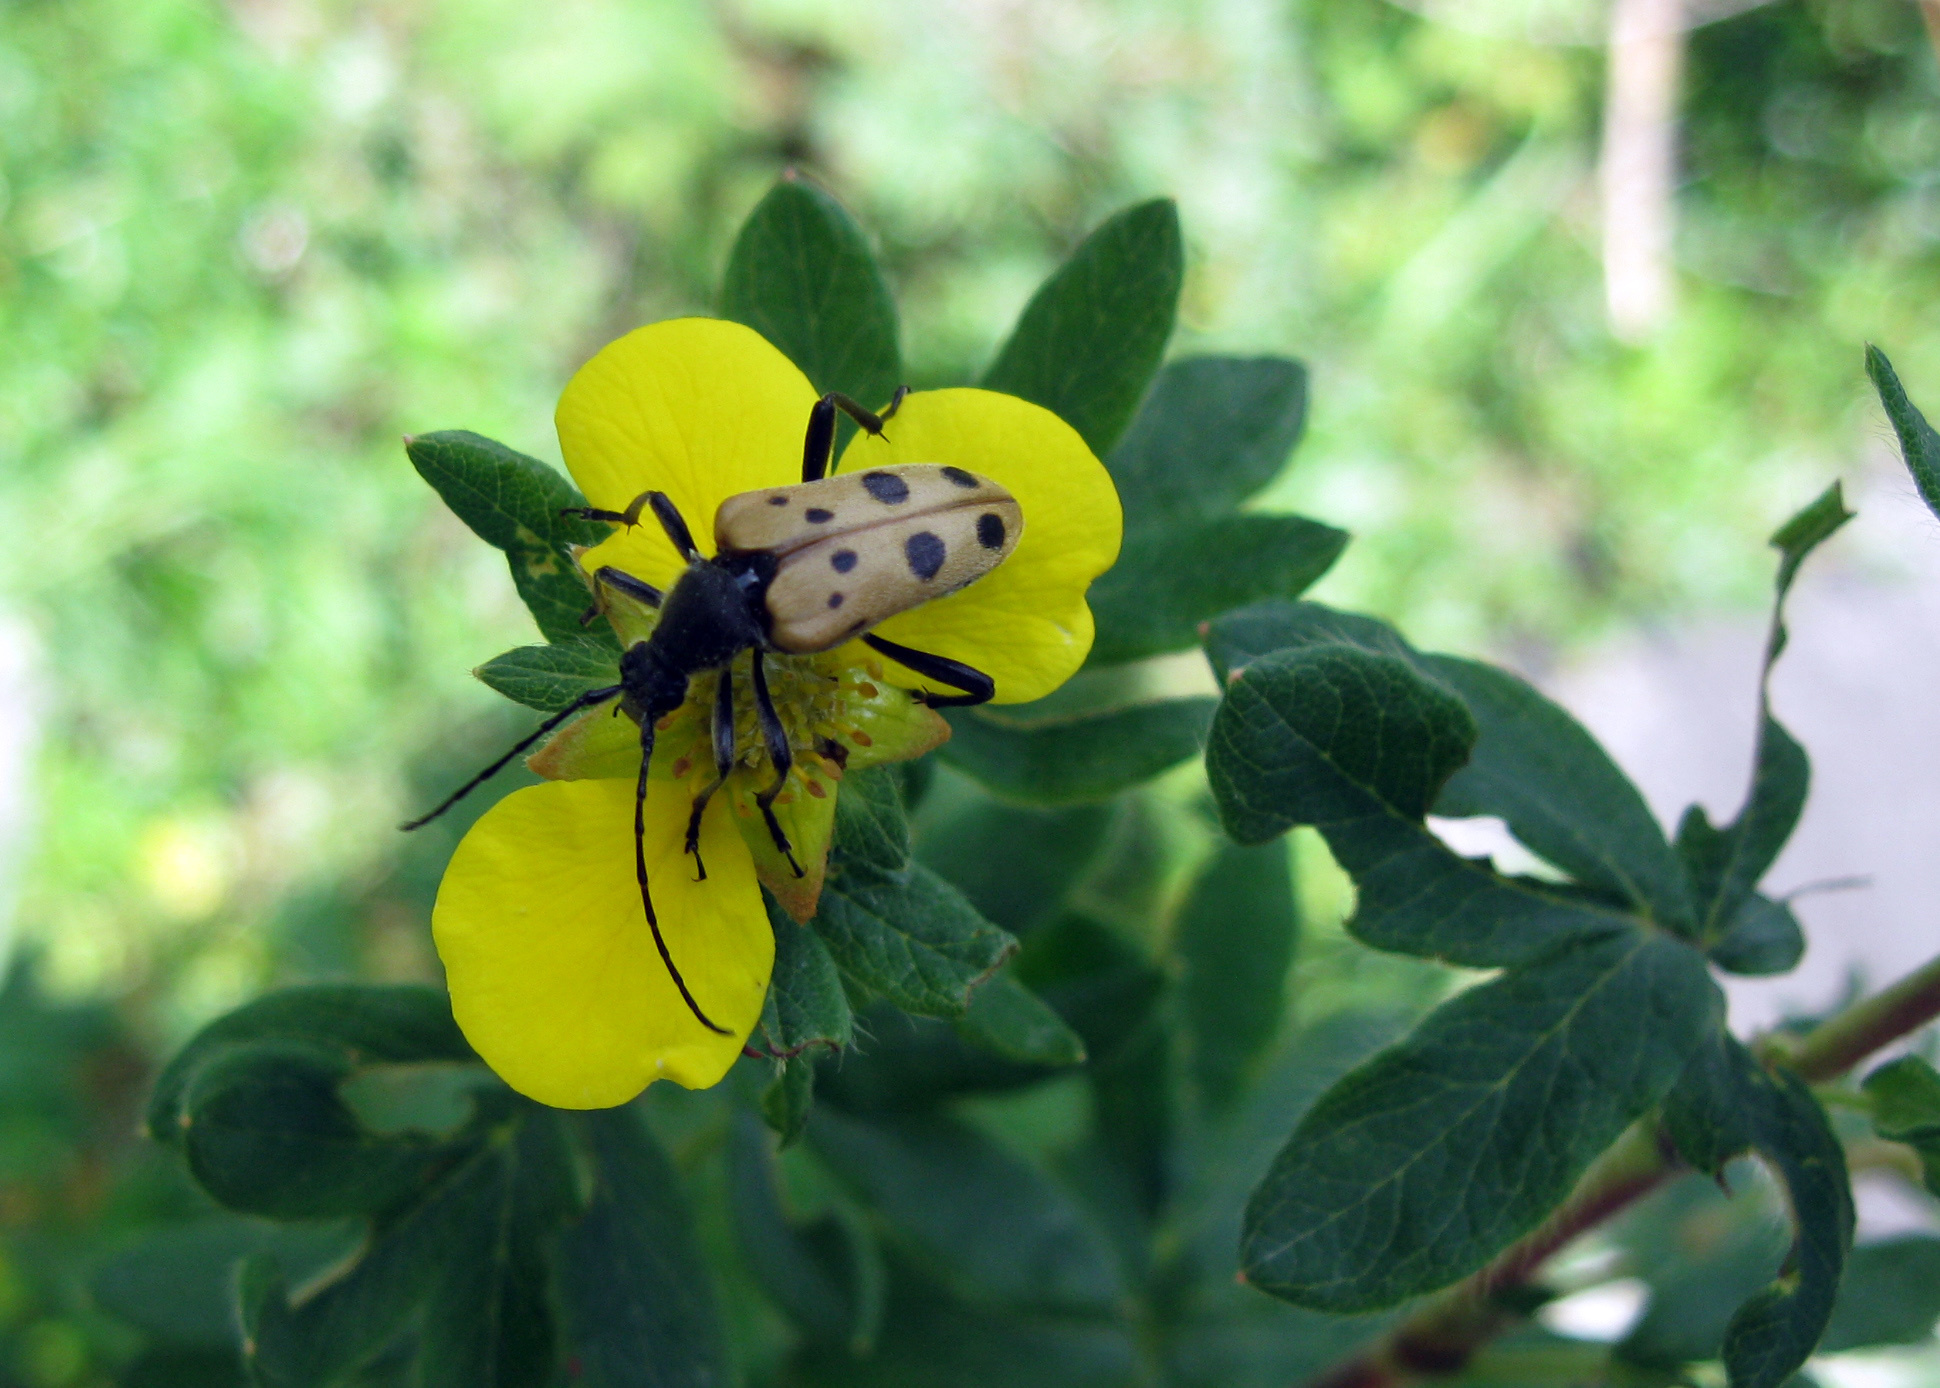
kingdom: Animalia
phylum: Arthropoda
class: Insecta
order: Coleoptera
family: Cerambycidae
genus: Oedecnema
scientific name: Oedecnema gebleri
